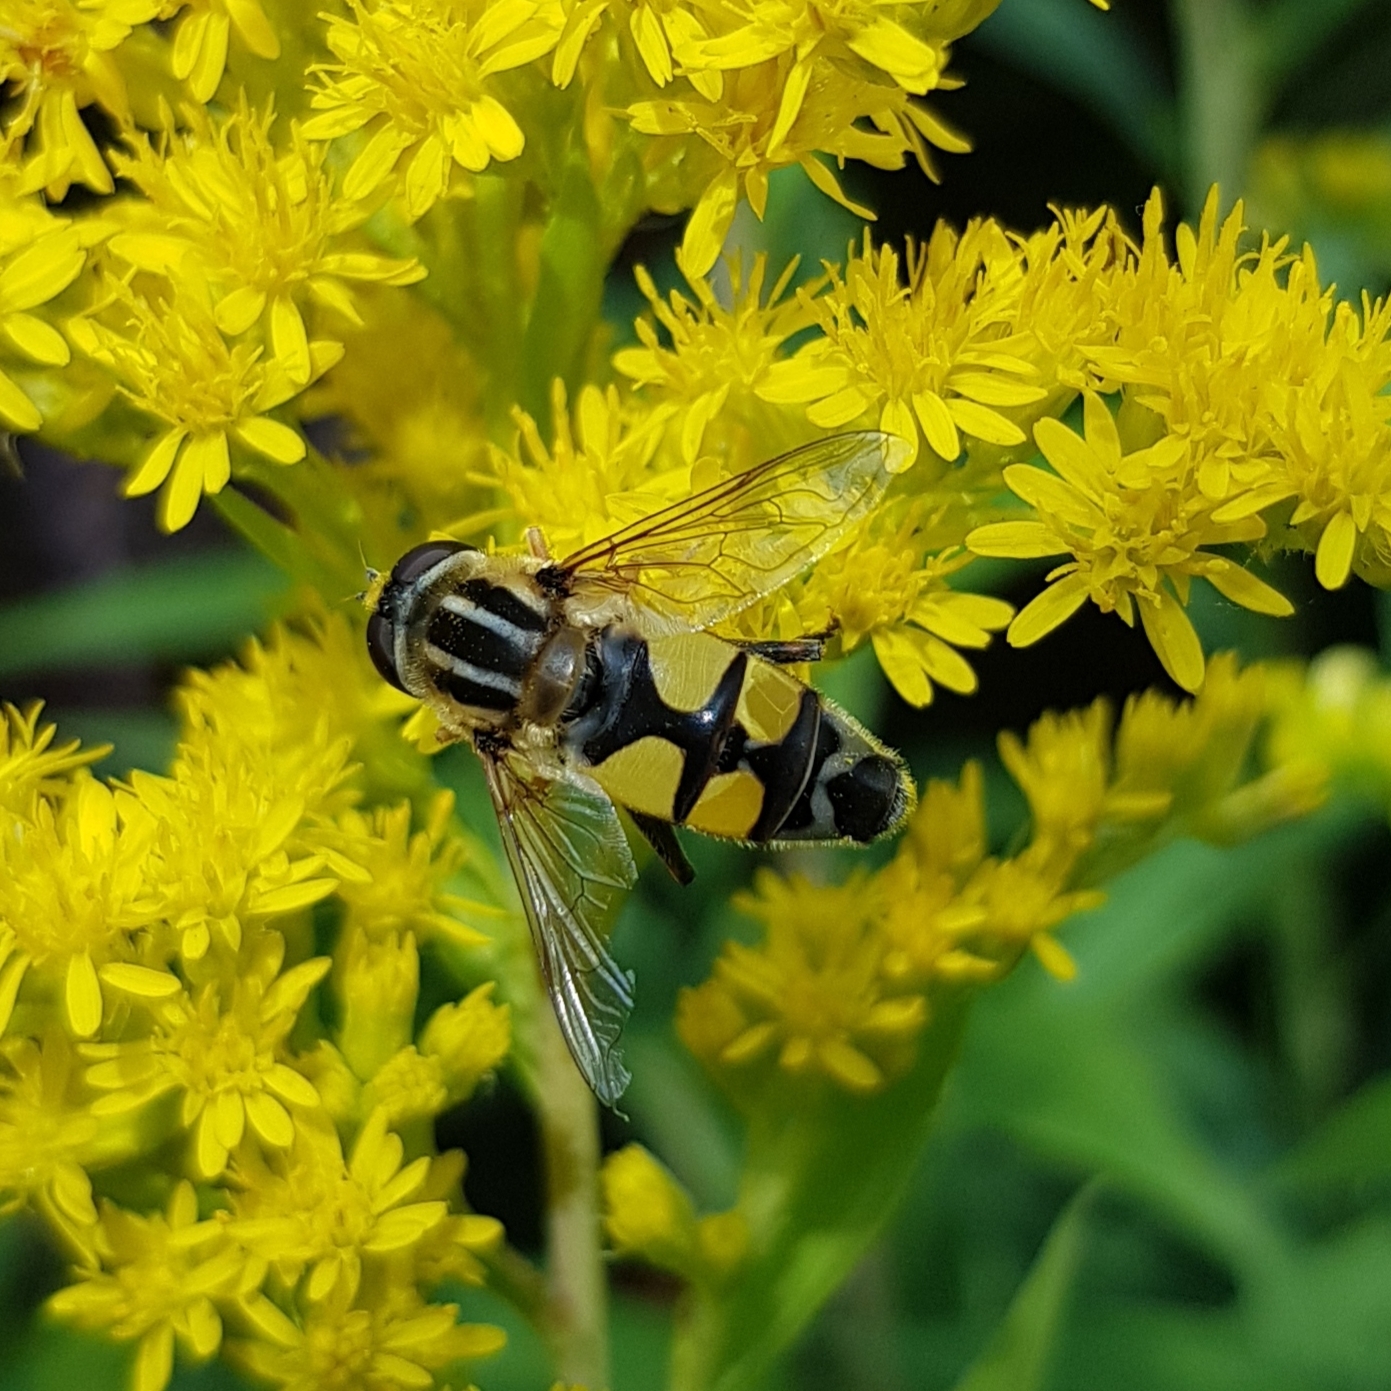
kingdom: Animalia
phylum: Arthropoda
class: Insecta
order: Diptera
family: Syrphidae
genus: Helophilus
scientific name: Helophilus trivittatus
